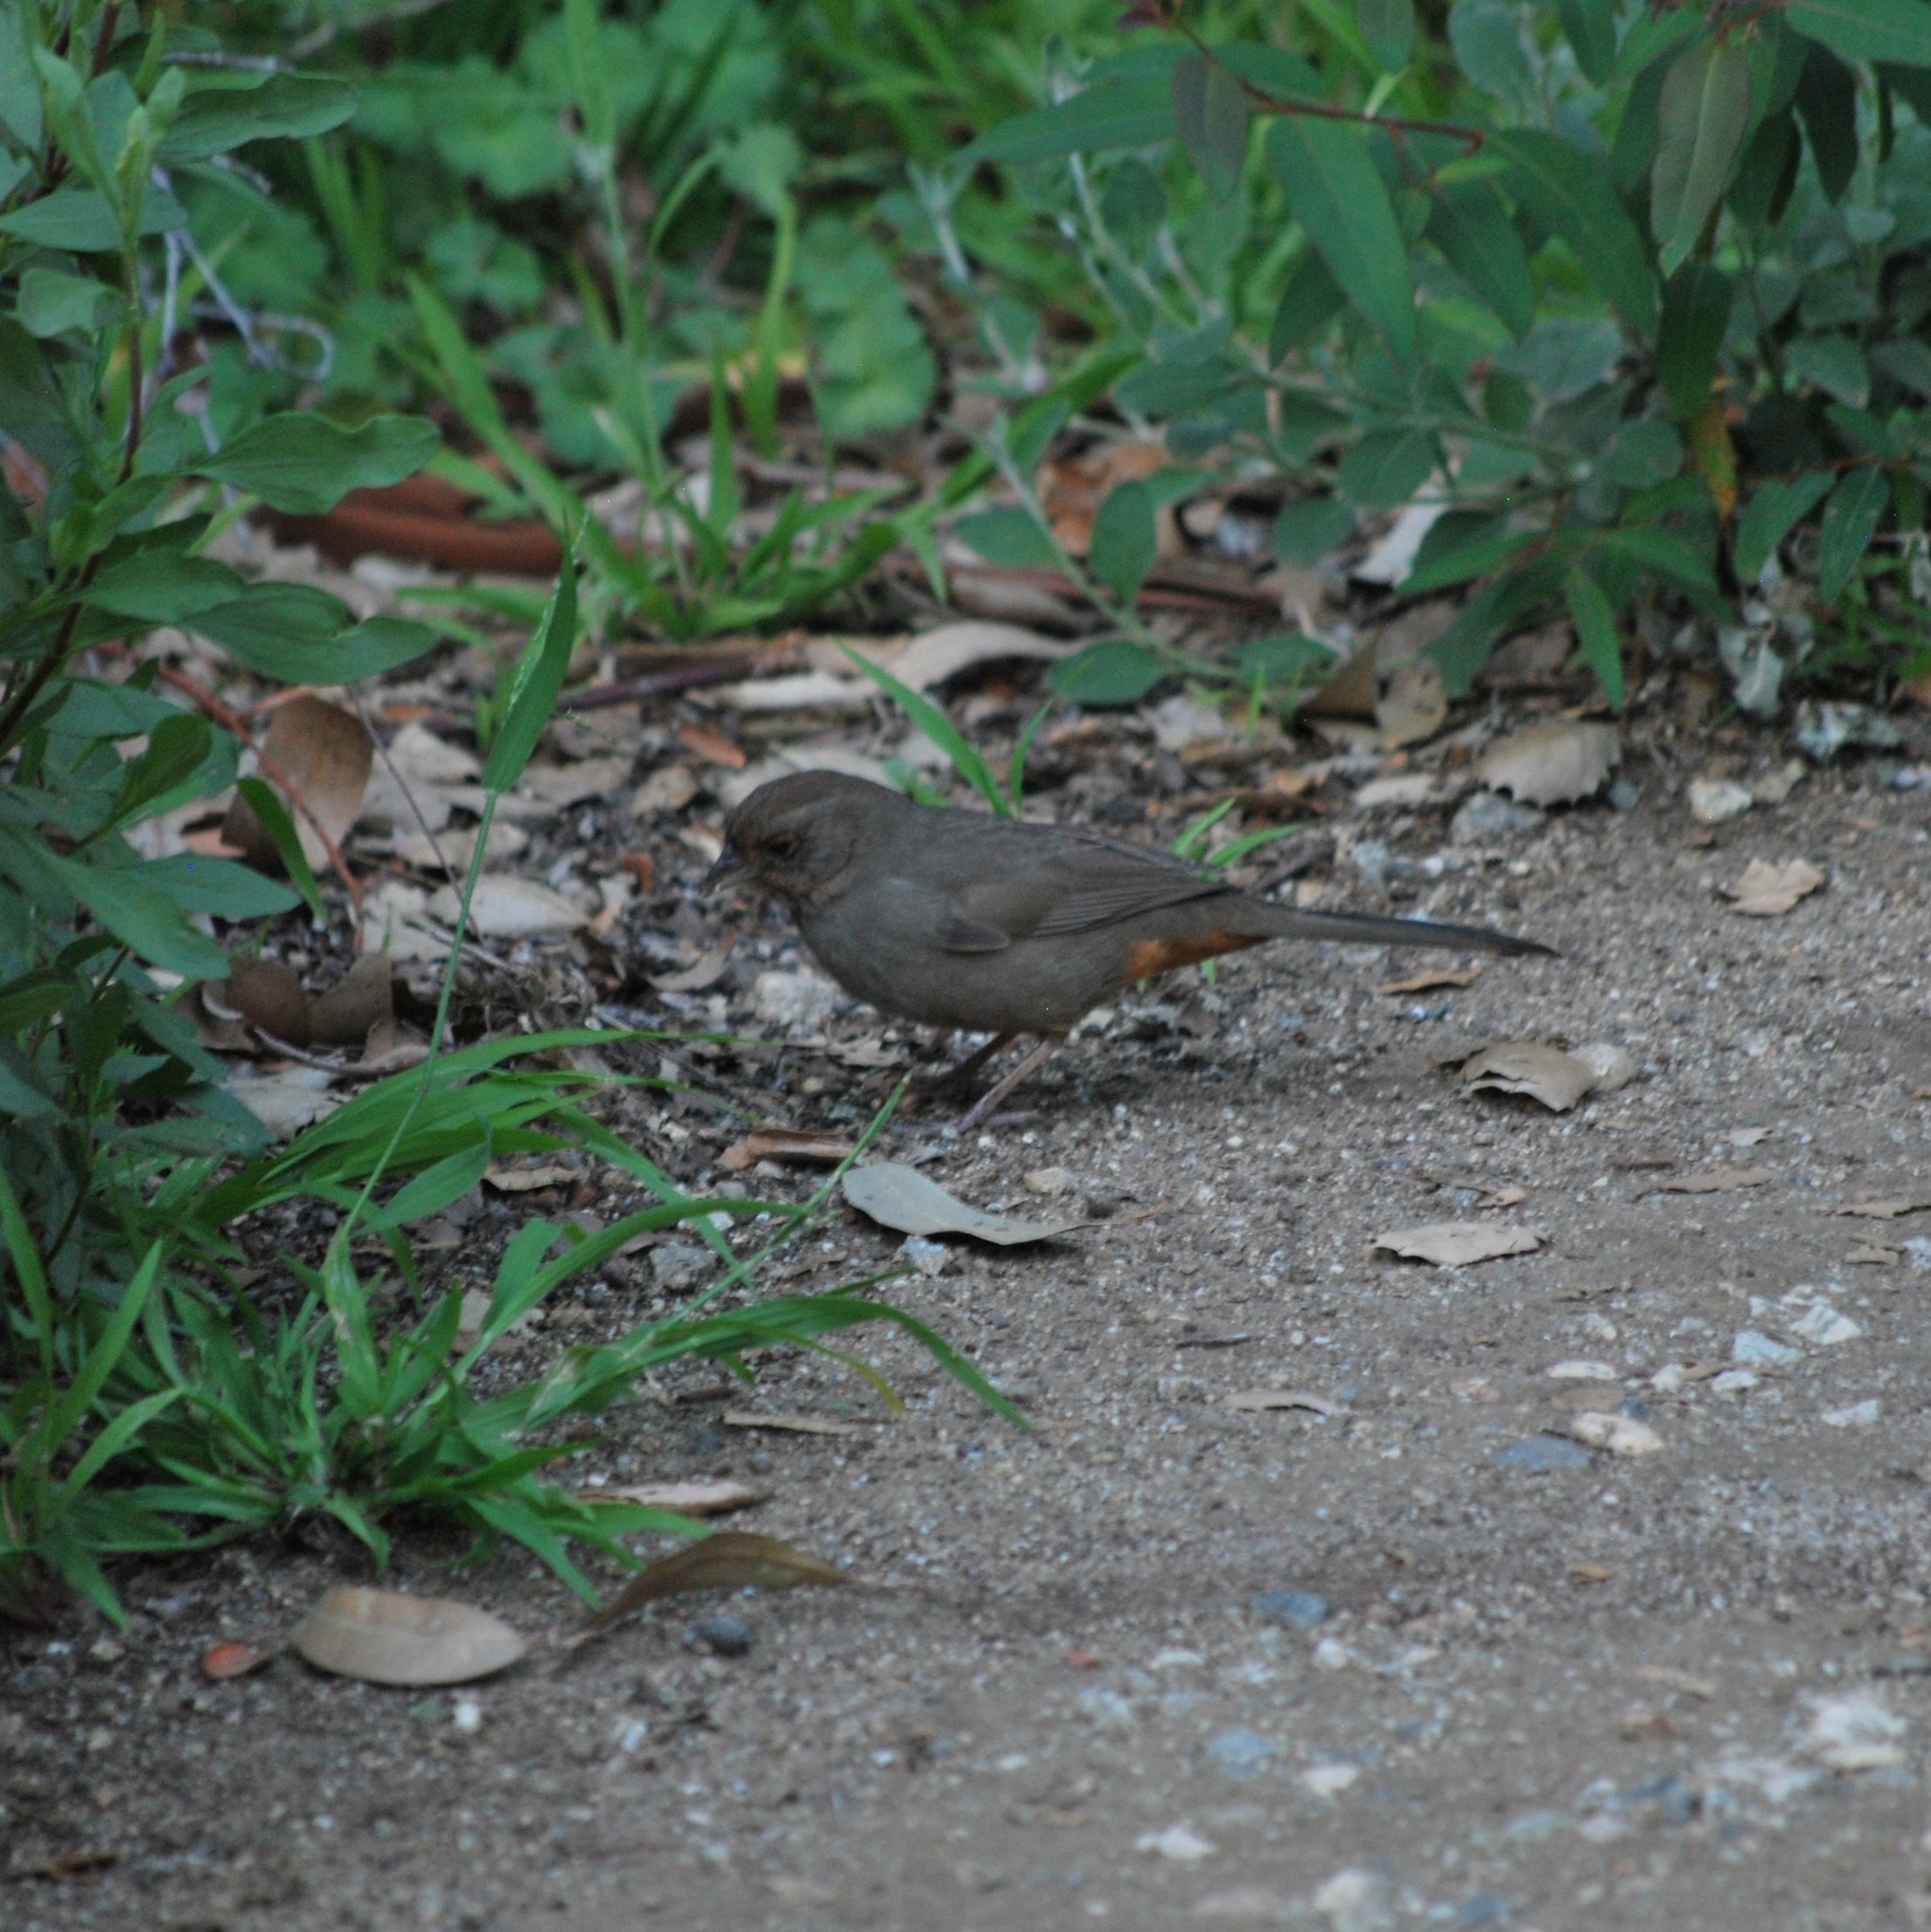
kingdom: Animalia
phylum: Chordata
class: Aves
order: Passeriformes
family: Passerellidae
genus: Melozone
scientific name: Melozone crissalis
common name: California towhee
